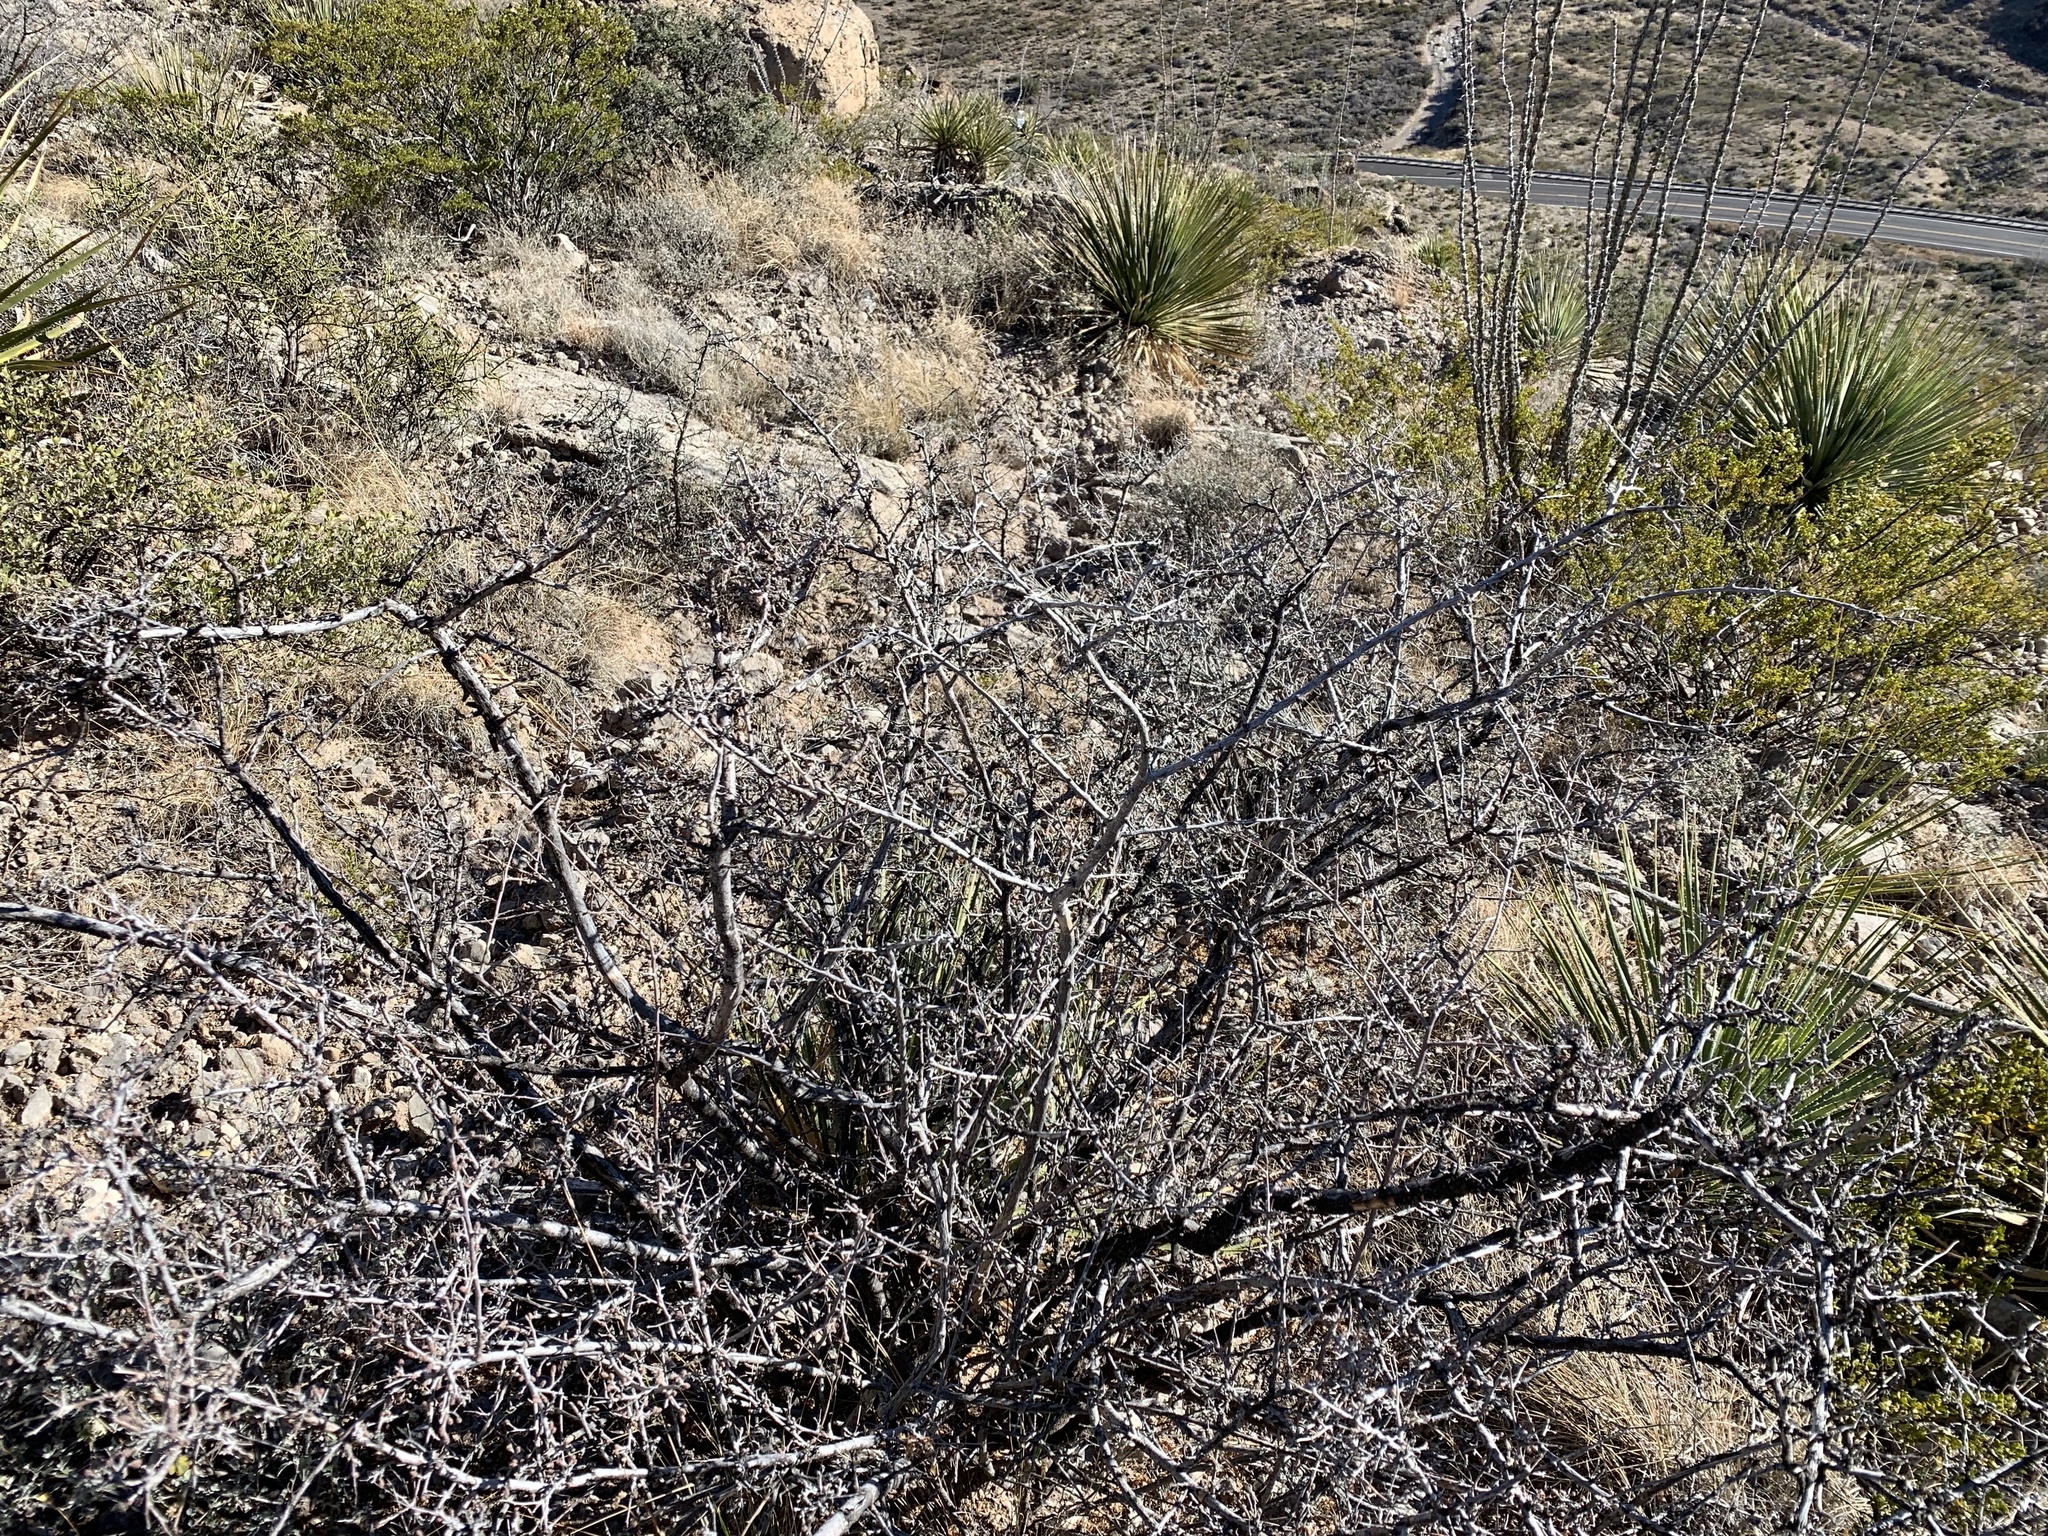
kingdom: Plantae
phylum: Tracheophyta
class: Magnoliopsida
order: Sapindales
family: Anacardiaceae
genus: Rhus
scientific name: Rhus microphylla
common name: Desert sumac
